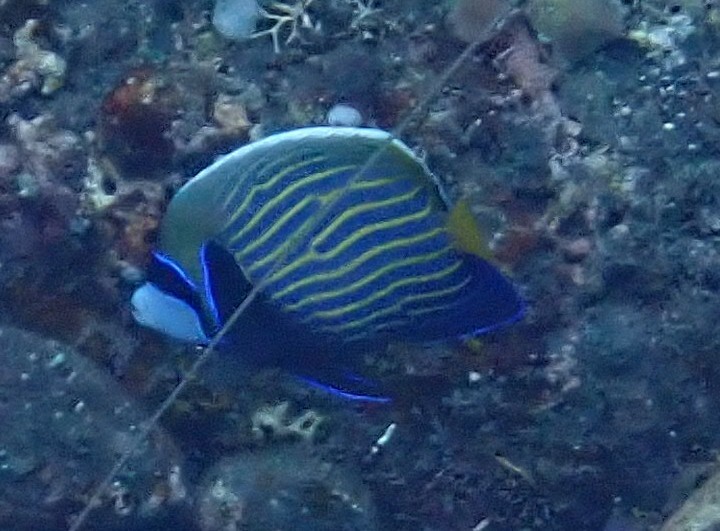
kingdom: Animalia
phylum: Chordata
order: Perciformes
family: Pomacanthidae
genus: Pomacanthus
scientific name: Pomacanthus imperator
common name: Emperor angelfish
